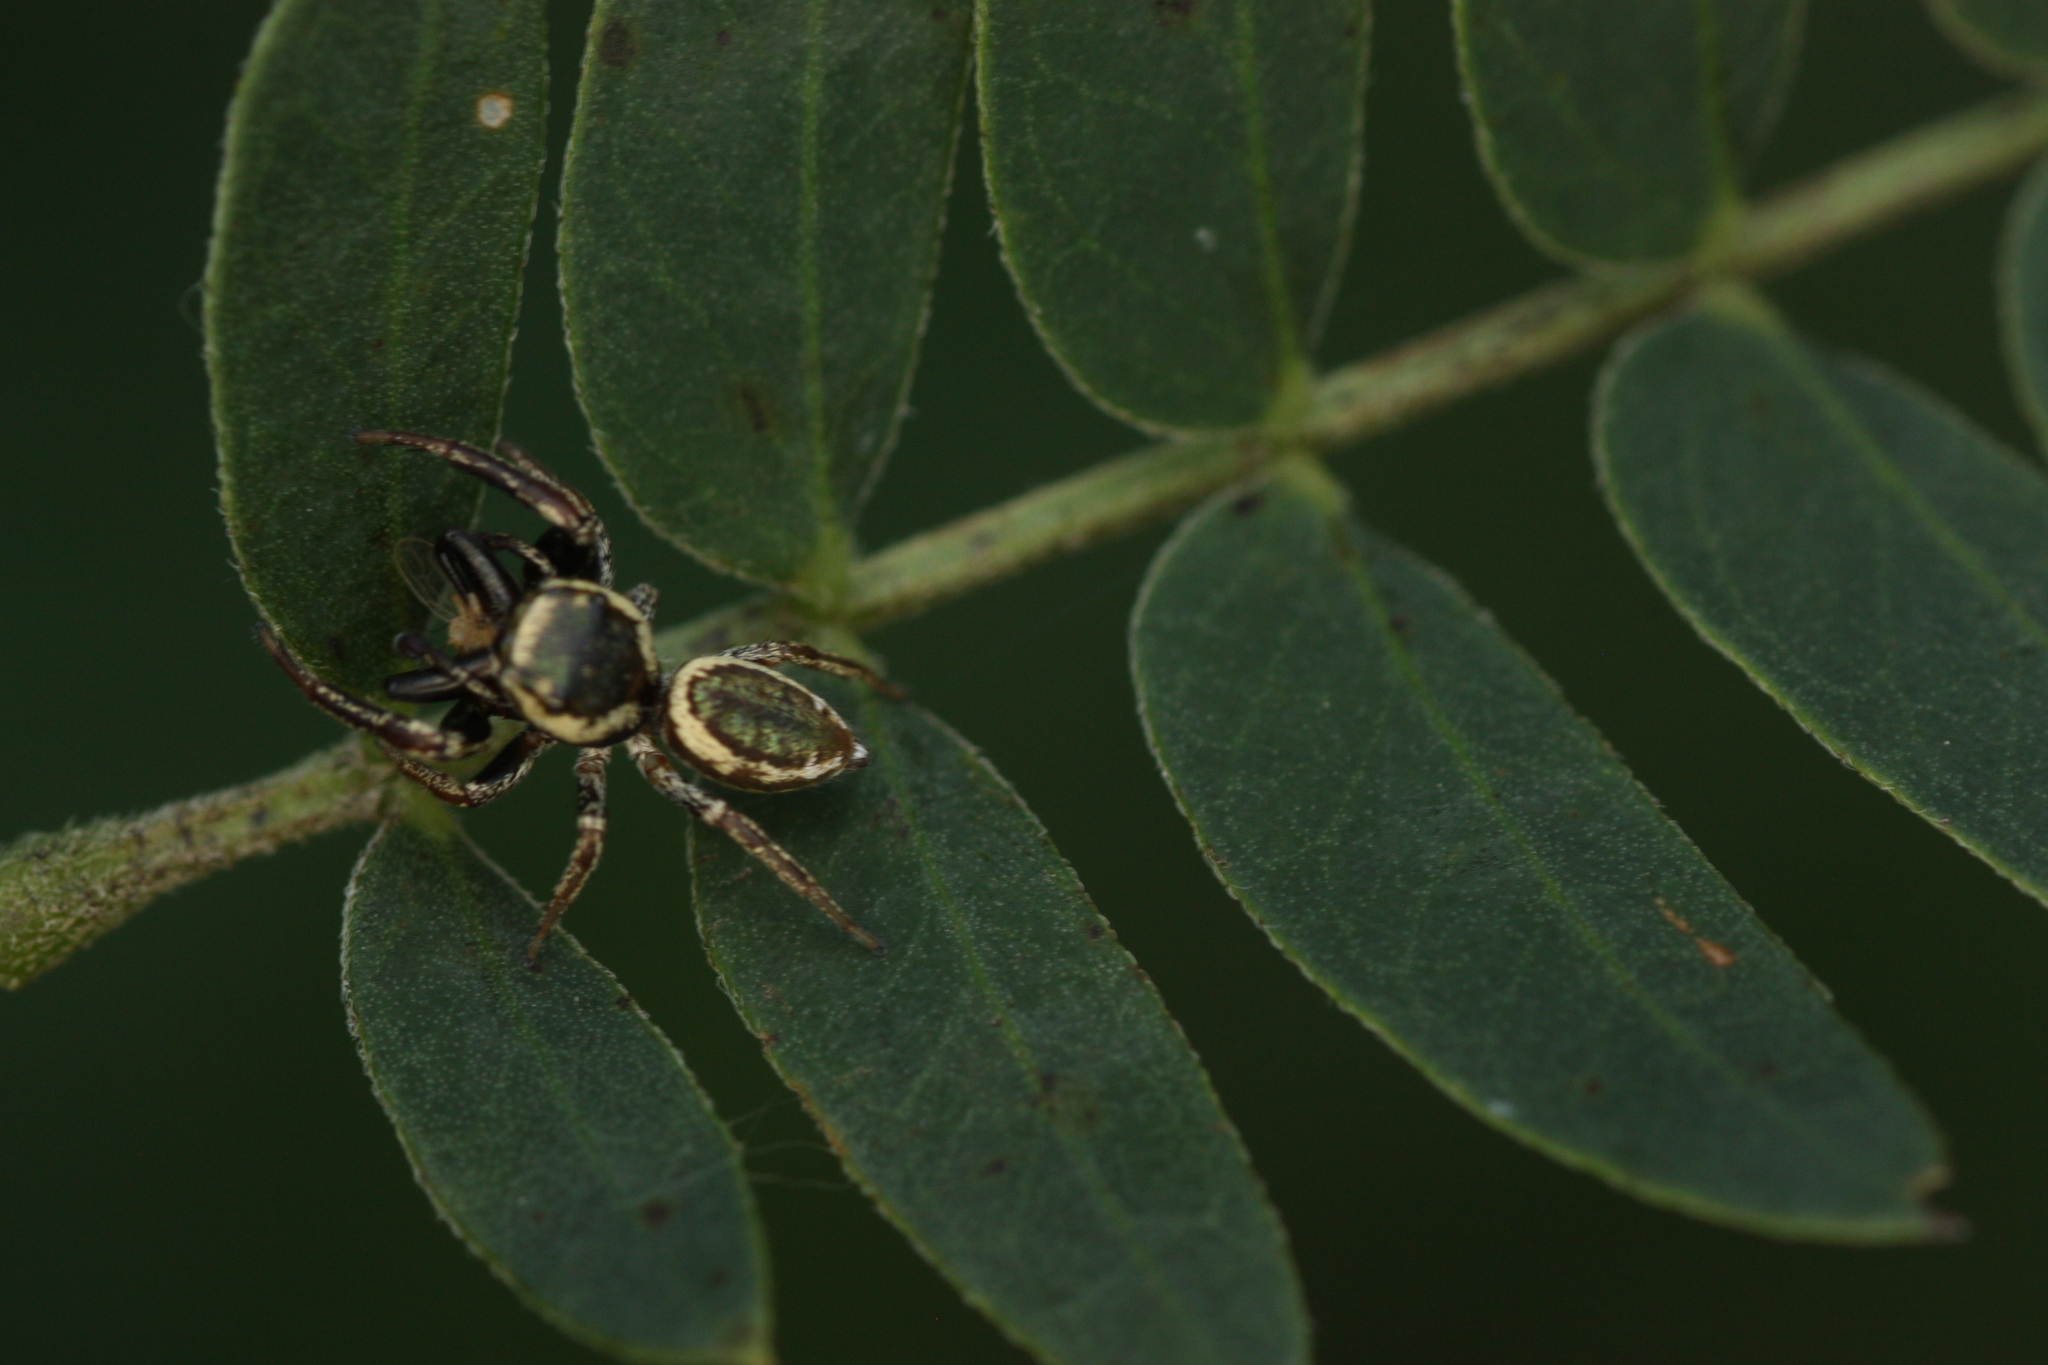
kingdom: Animalia
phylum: Arthropoda
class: Arachnida
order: Araneae
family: Salticidae
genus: Messua
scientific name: Messua felix
